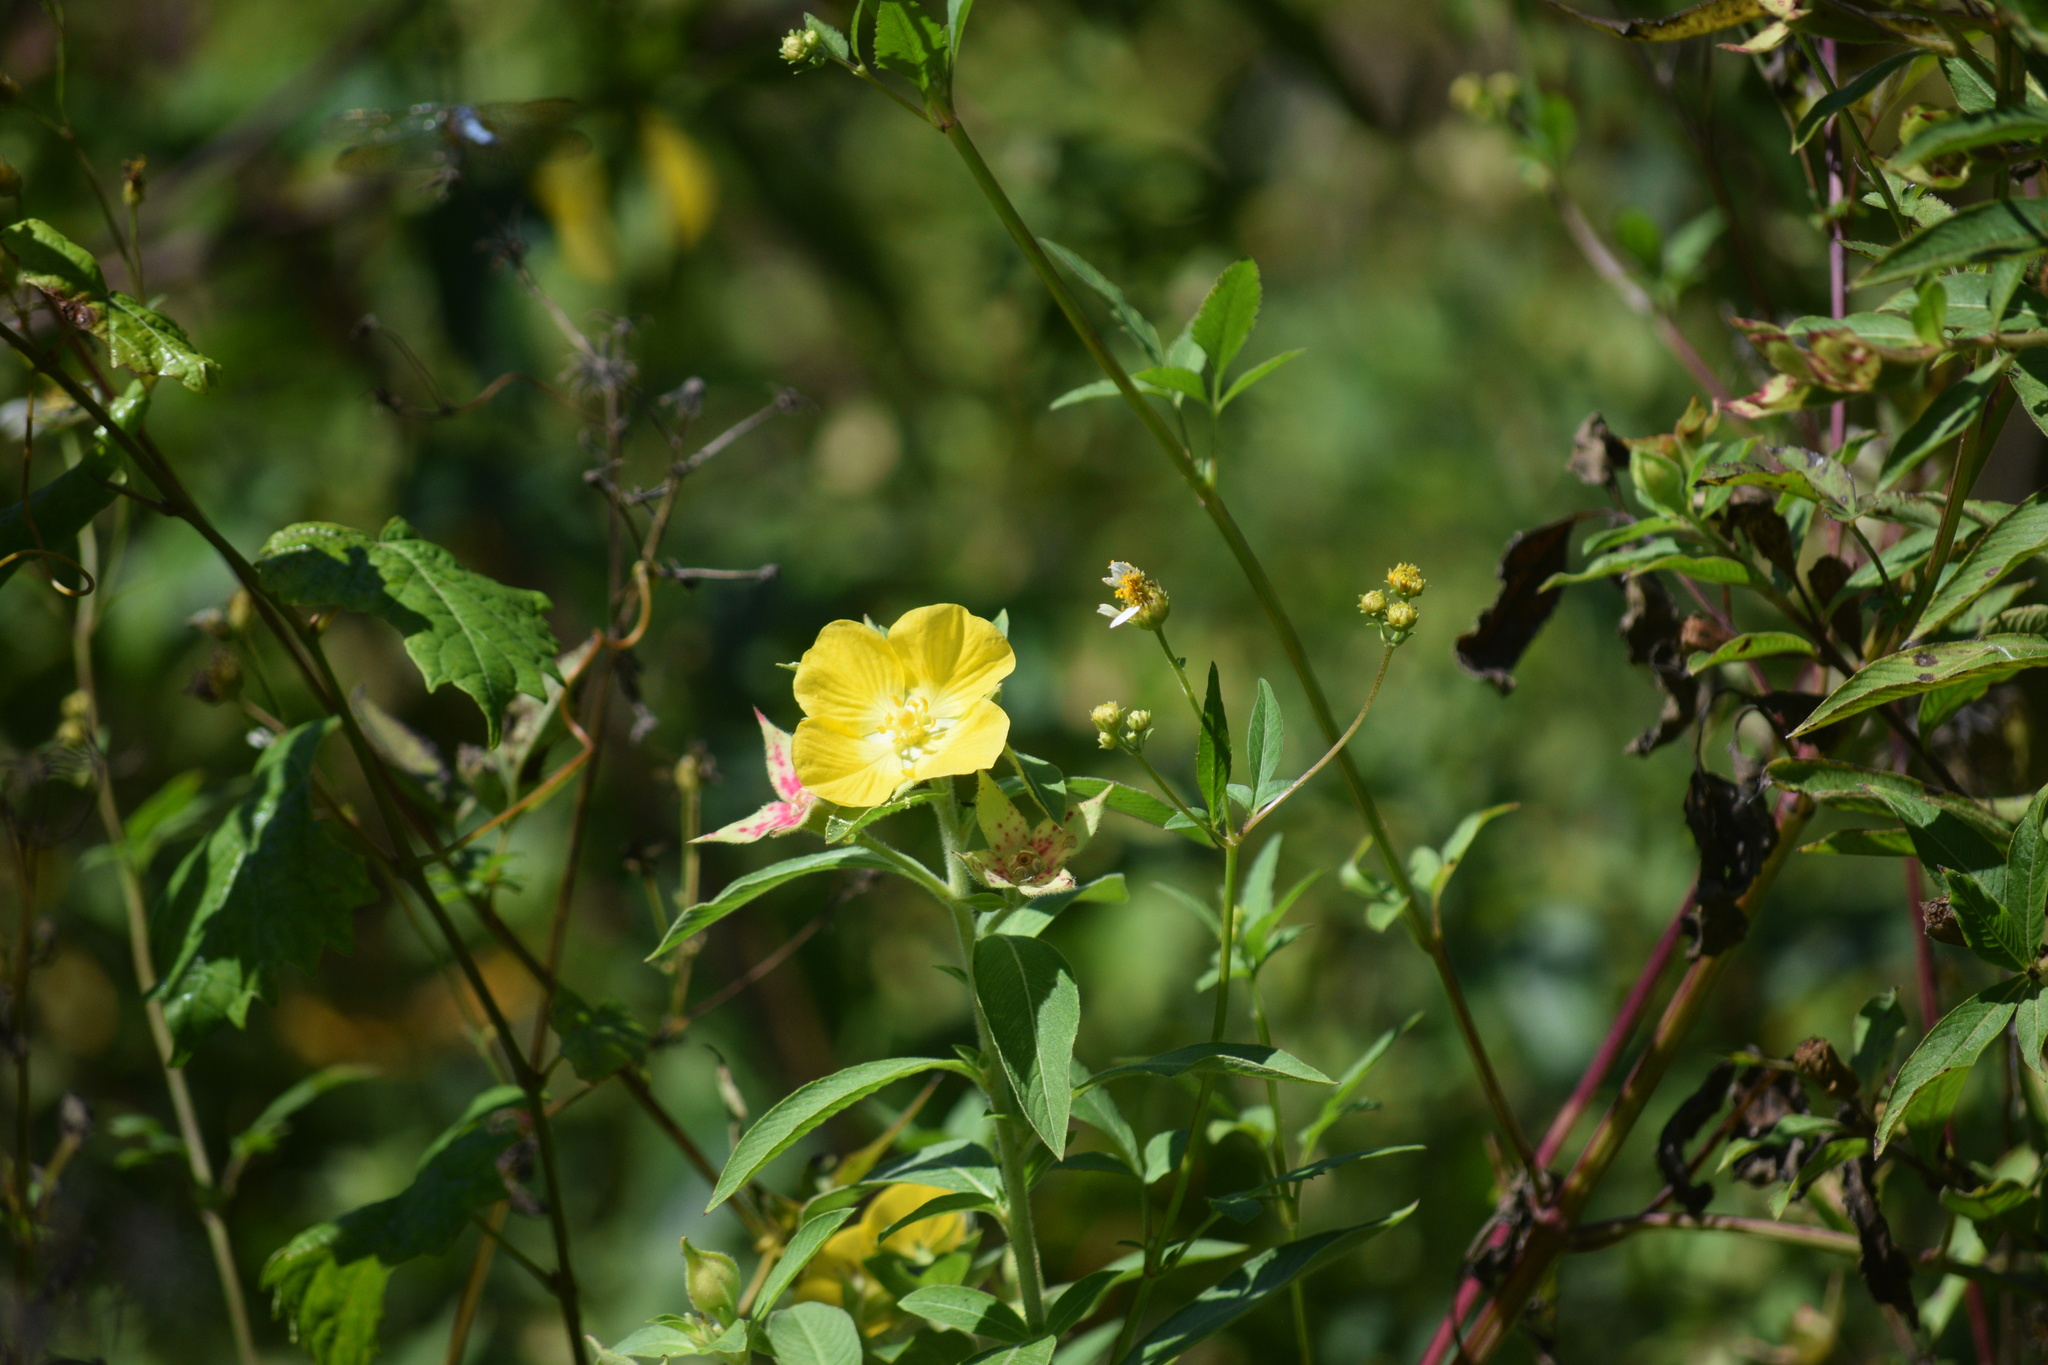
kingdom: Plantae
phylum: Tracheophyta
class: Magnoliopsida
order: Myrtales
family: Onagraceae
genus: Ludwigia
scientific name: Ludwigia peruviana
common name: Peruvian primrose-willow
